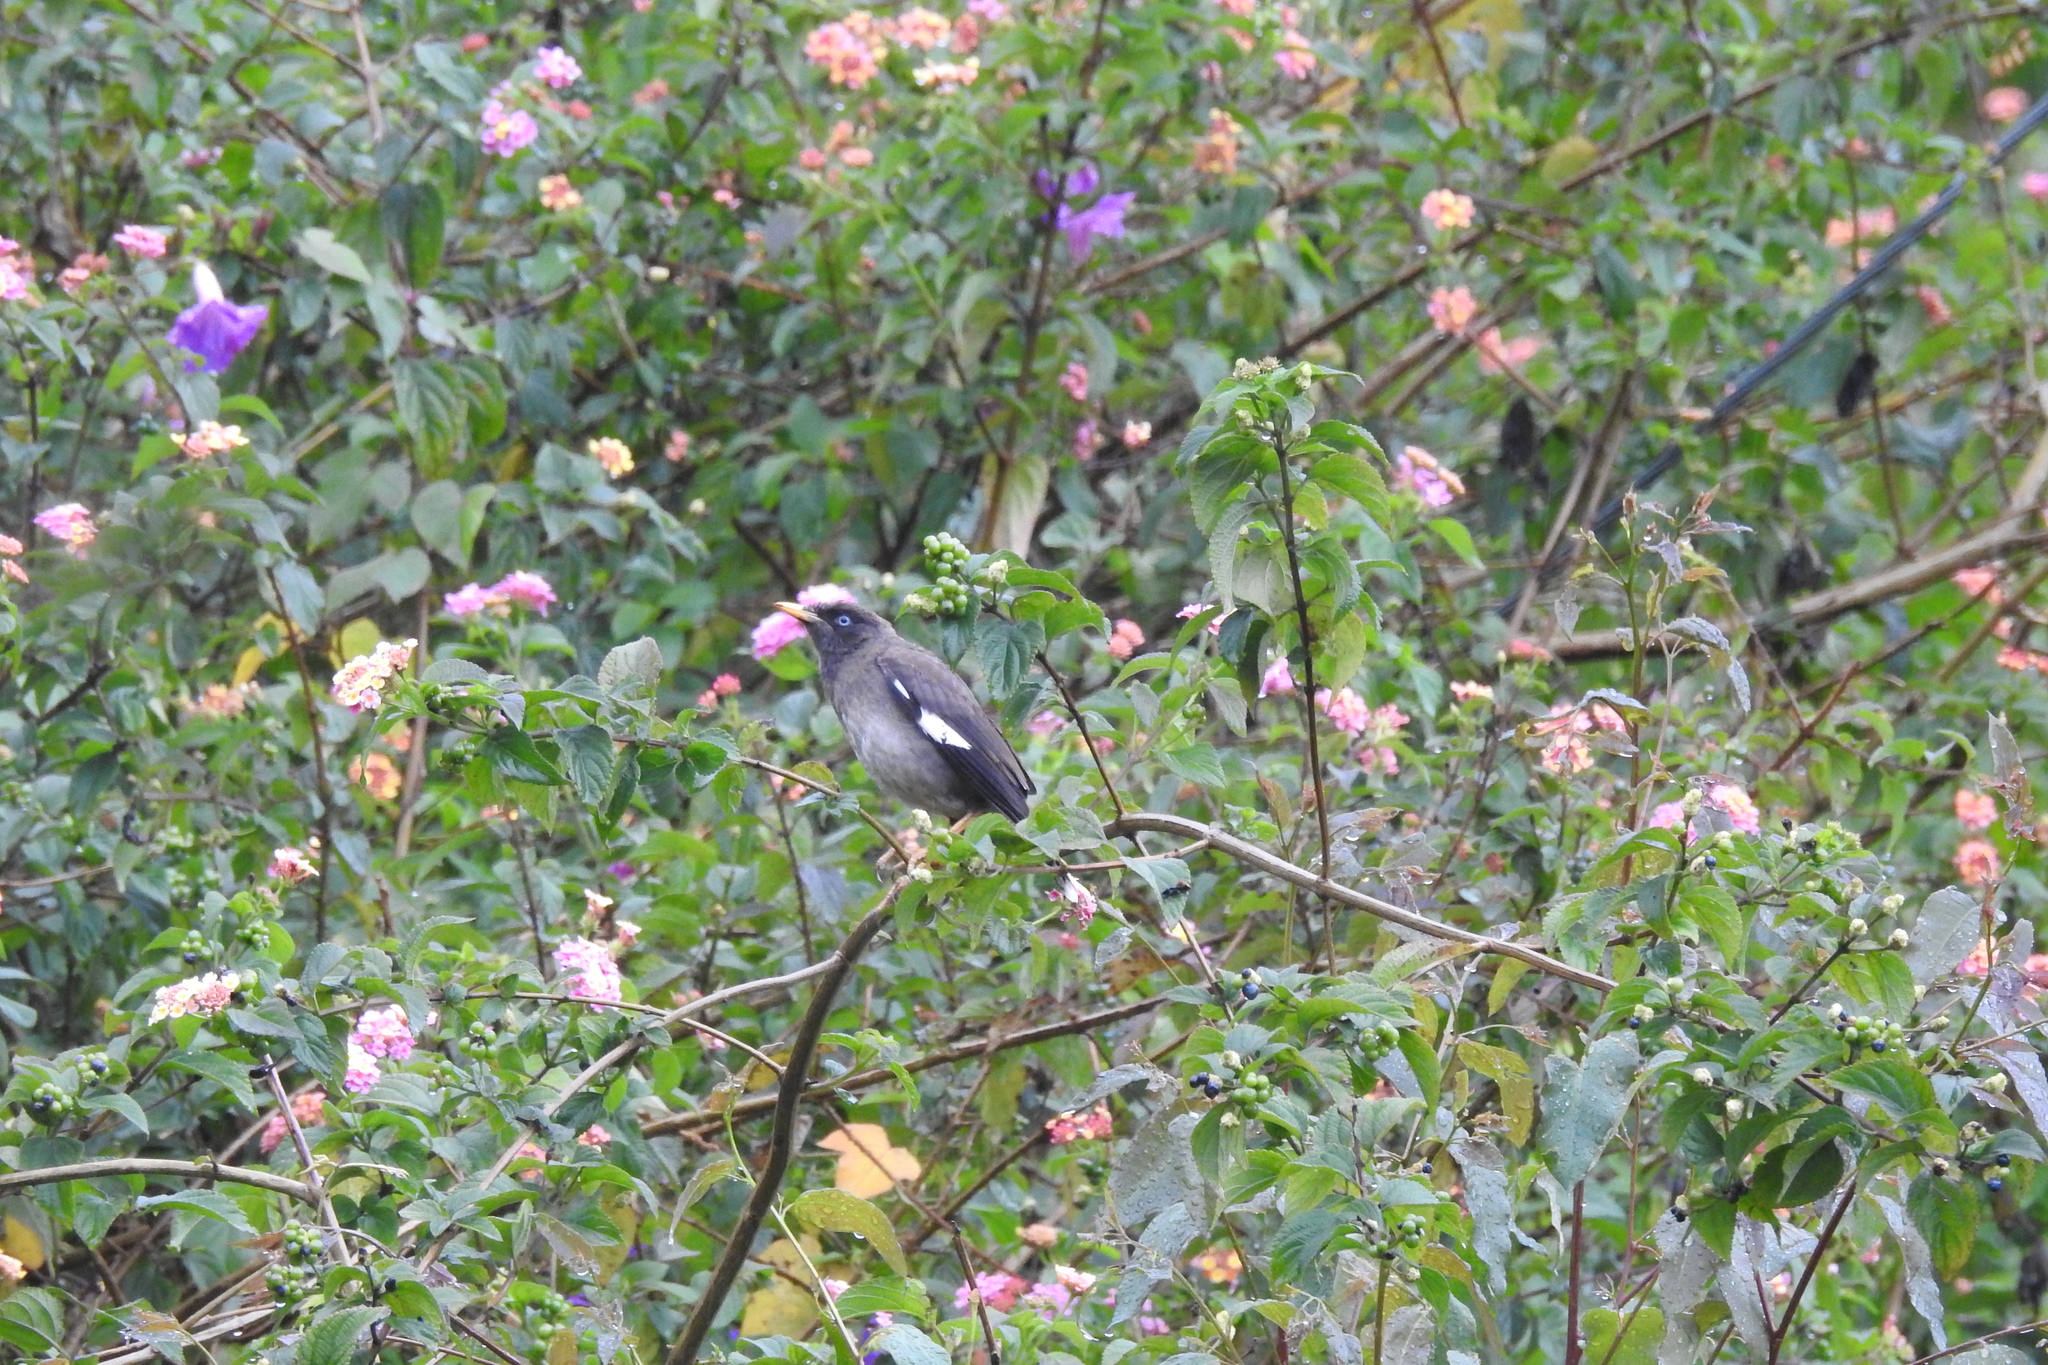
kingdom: Animalia
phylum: Chordata
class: Aves
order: Passeriformes
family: Sturnidae
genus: Acridotheres
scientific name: Acridotheres fuscus
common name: Jungle myna
